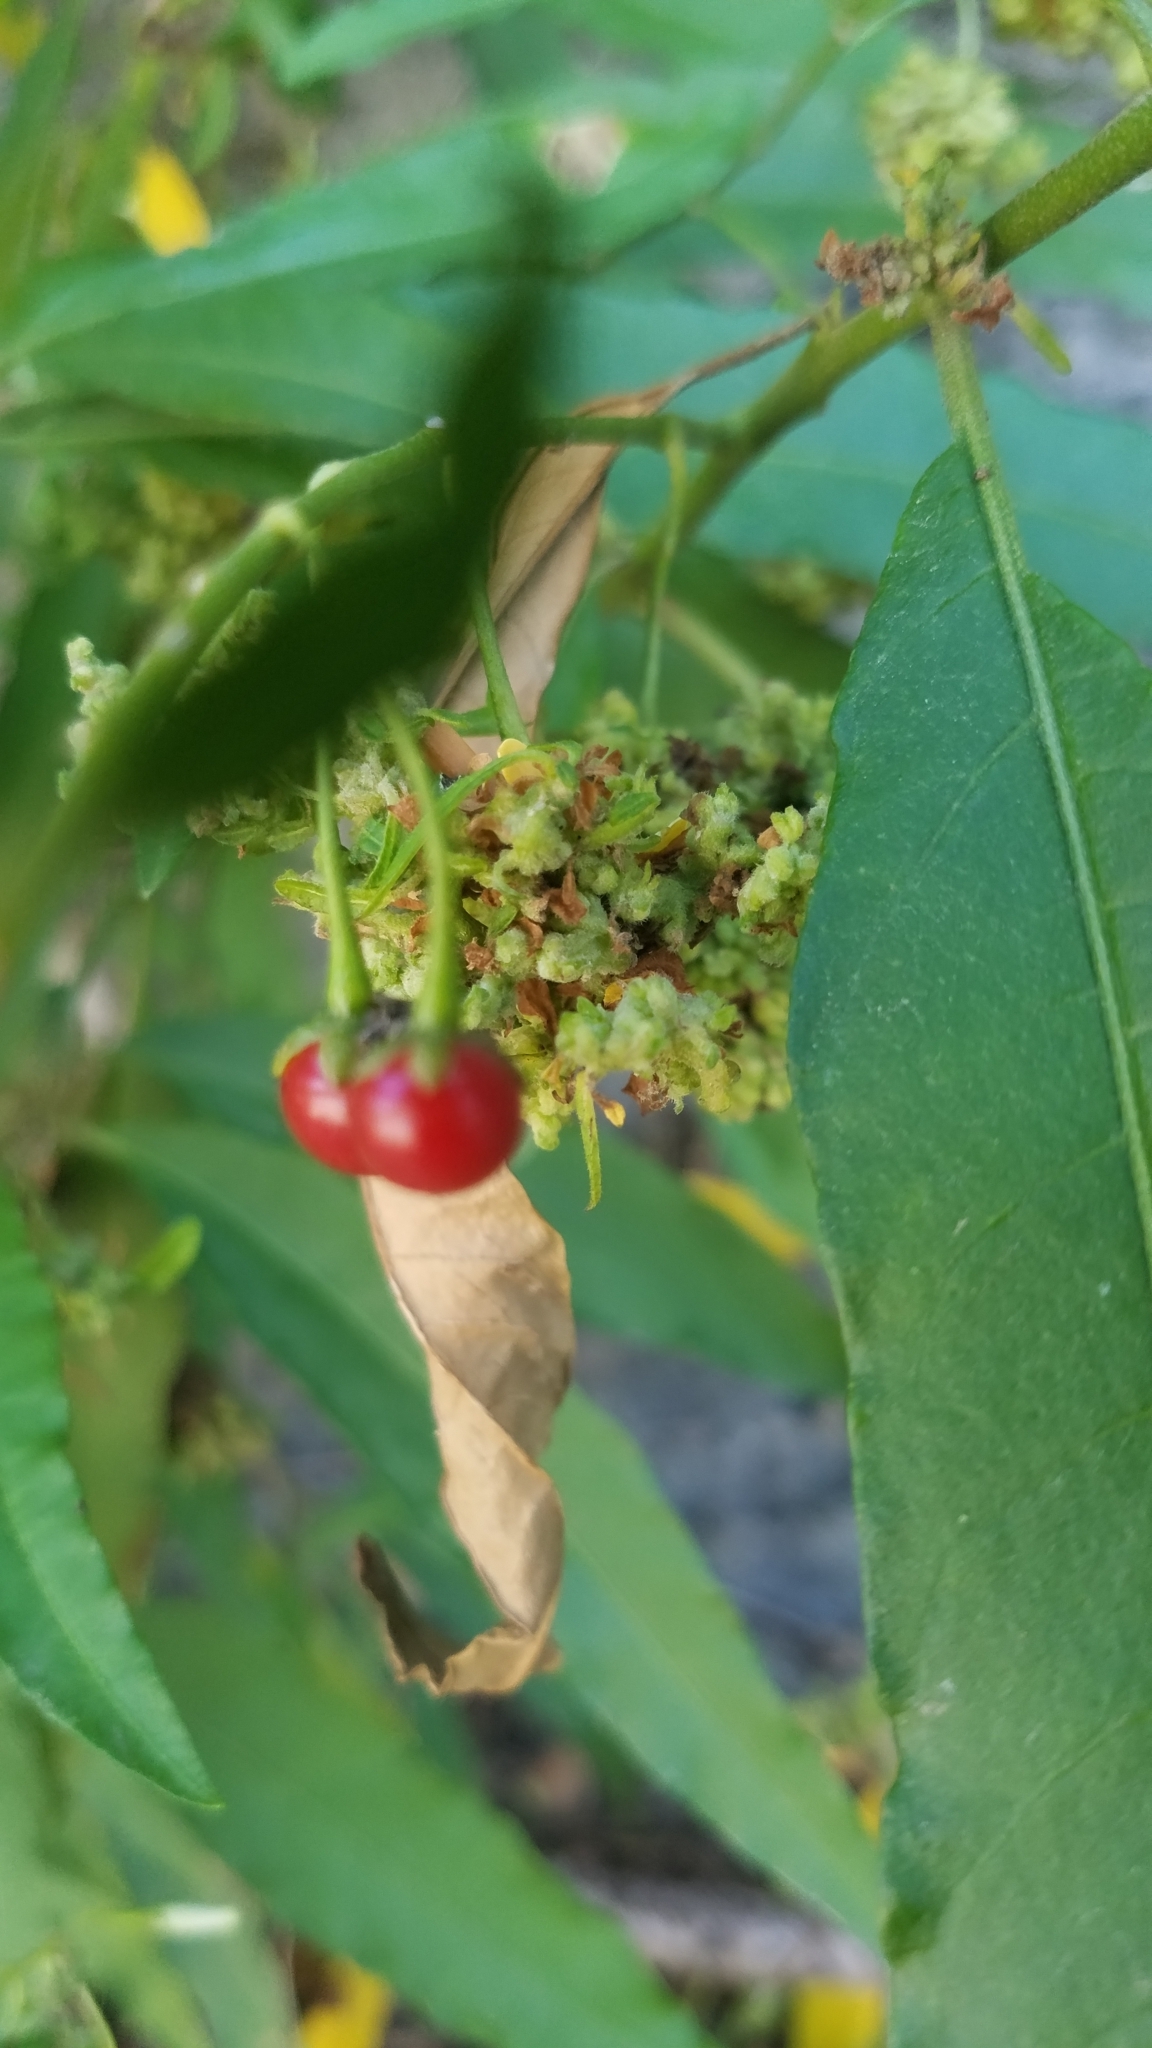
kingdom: Plantae
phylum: Tracheophyta
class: Magnoliopsida
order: Solanales
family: Solanaceae
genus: Solanum
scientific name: Solanum bahamense
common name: Canker-berry
